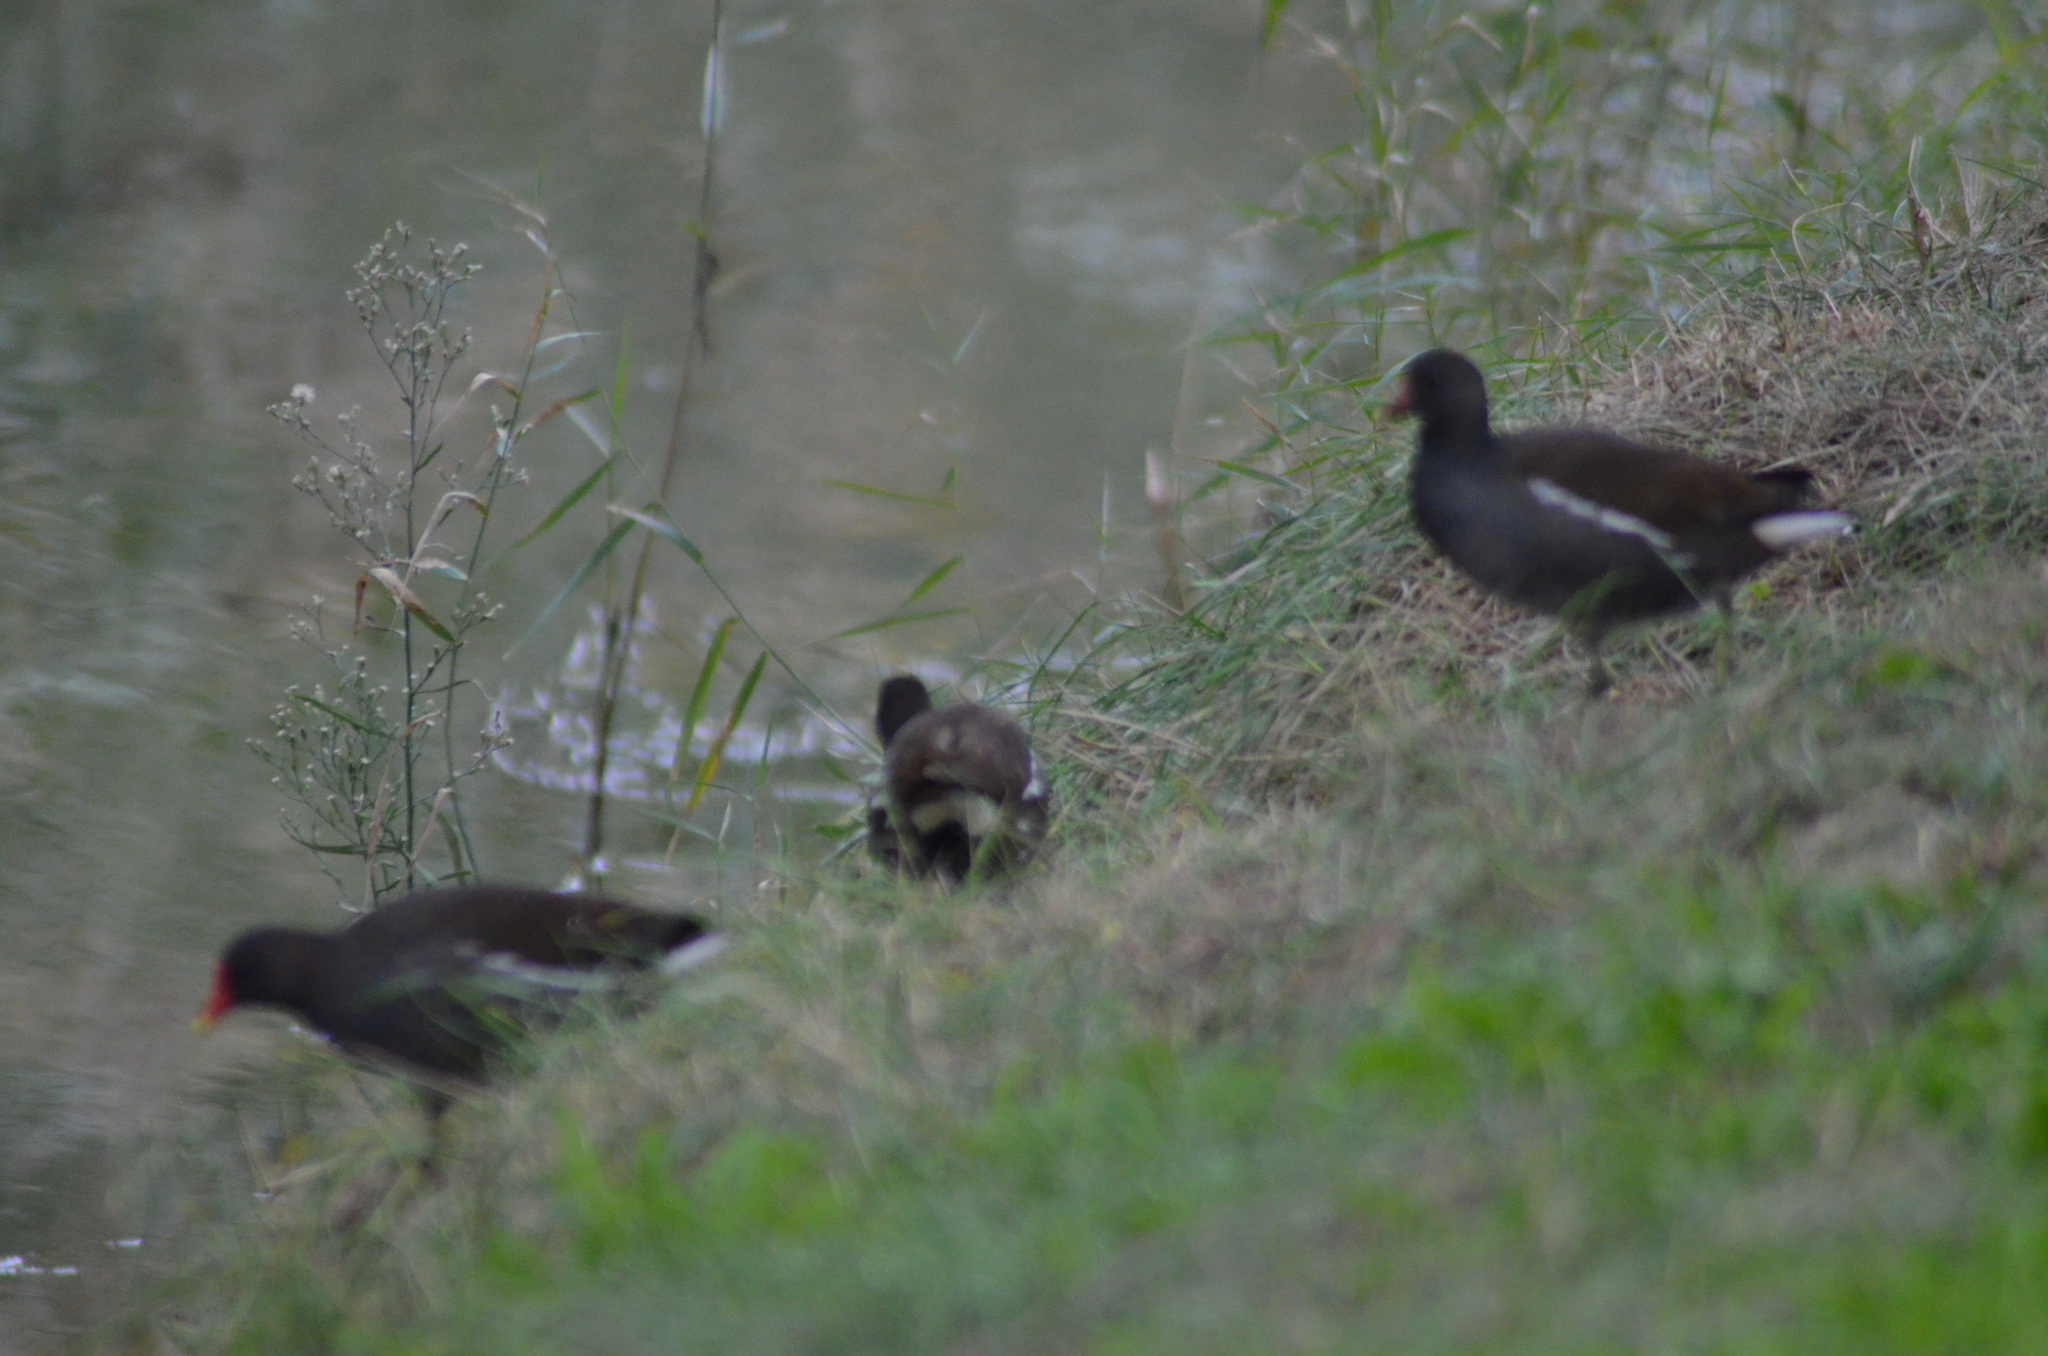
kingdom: Animalia
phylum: Chordata
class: Aves
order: Gruiformes
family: Rallidae
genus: Gallinula
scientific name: Gallinula chloropus
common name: Common moorhen
